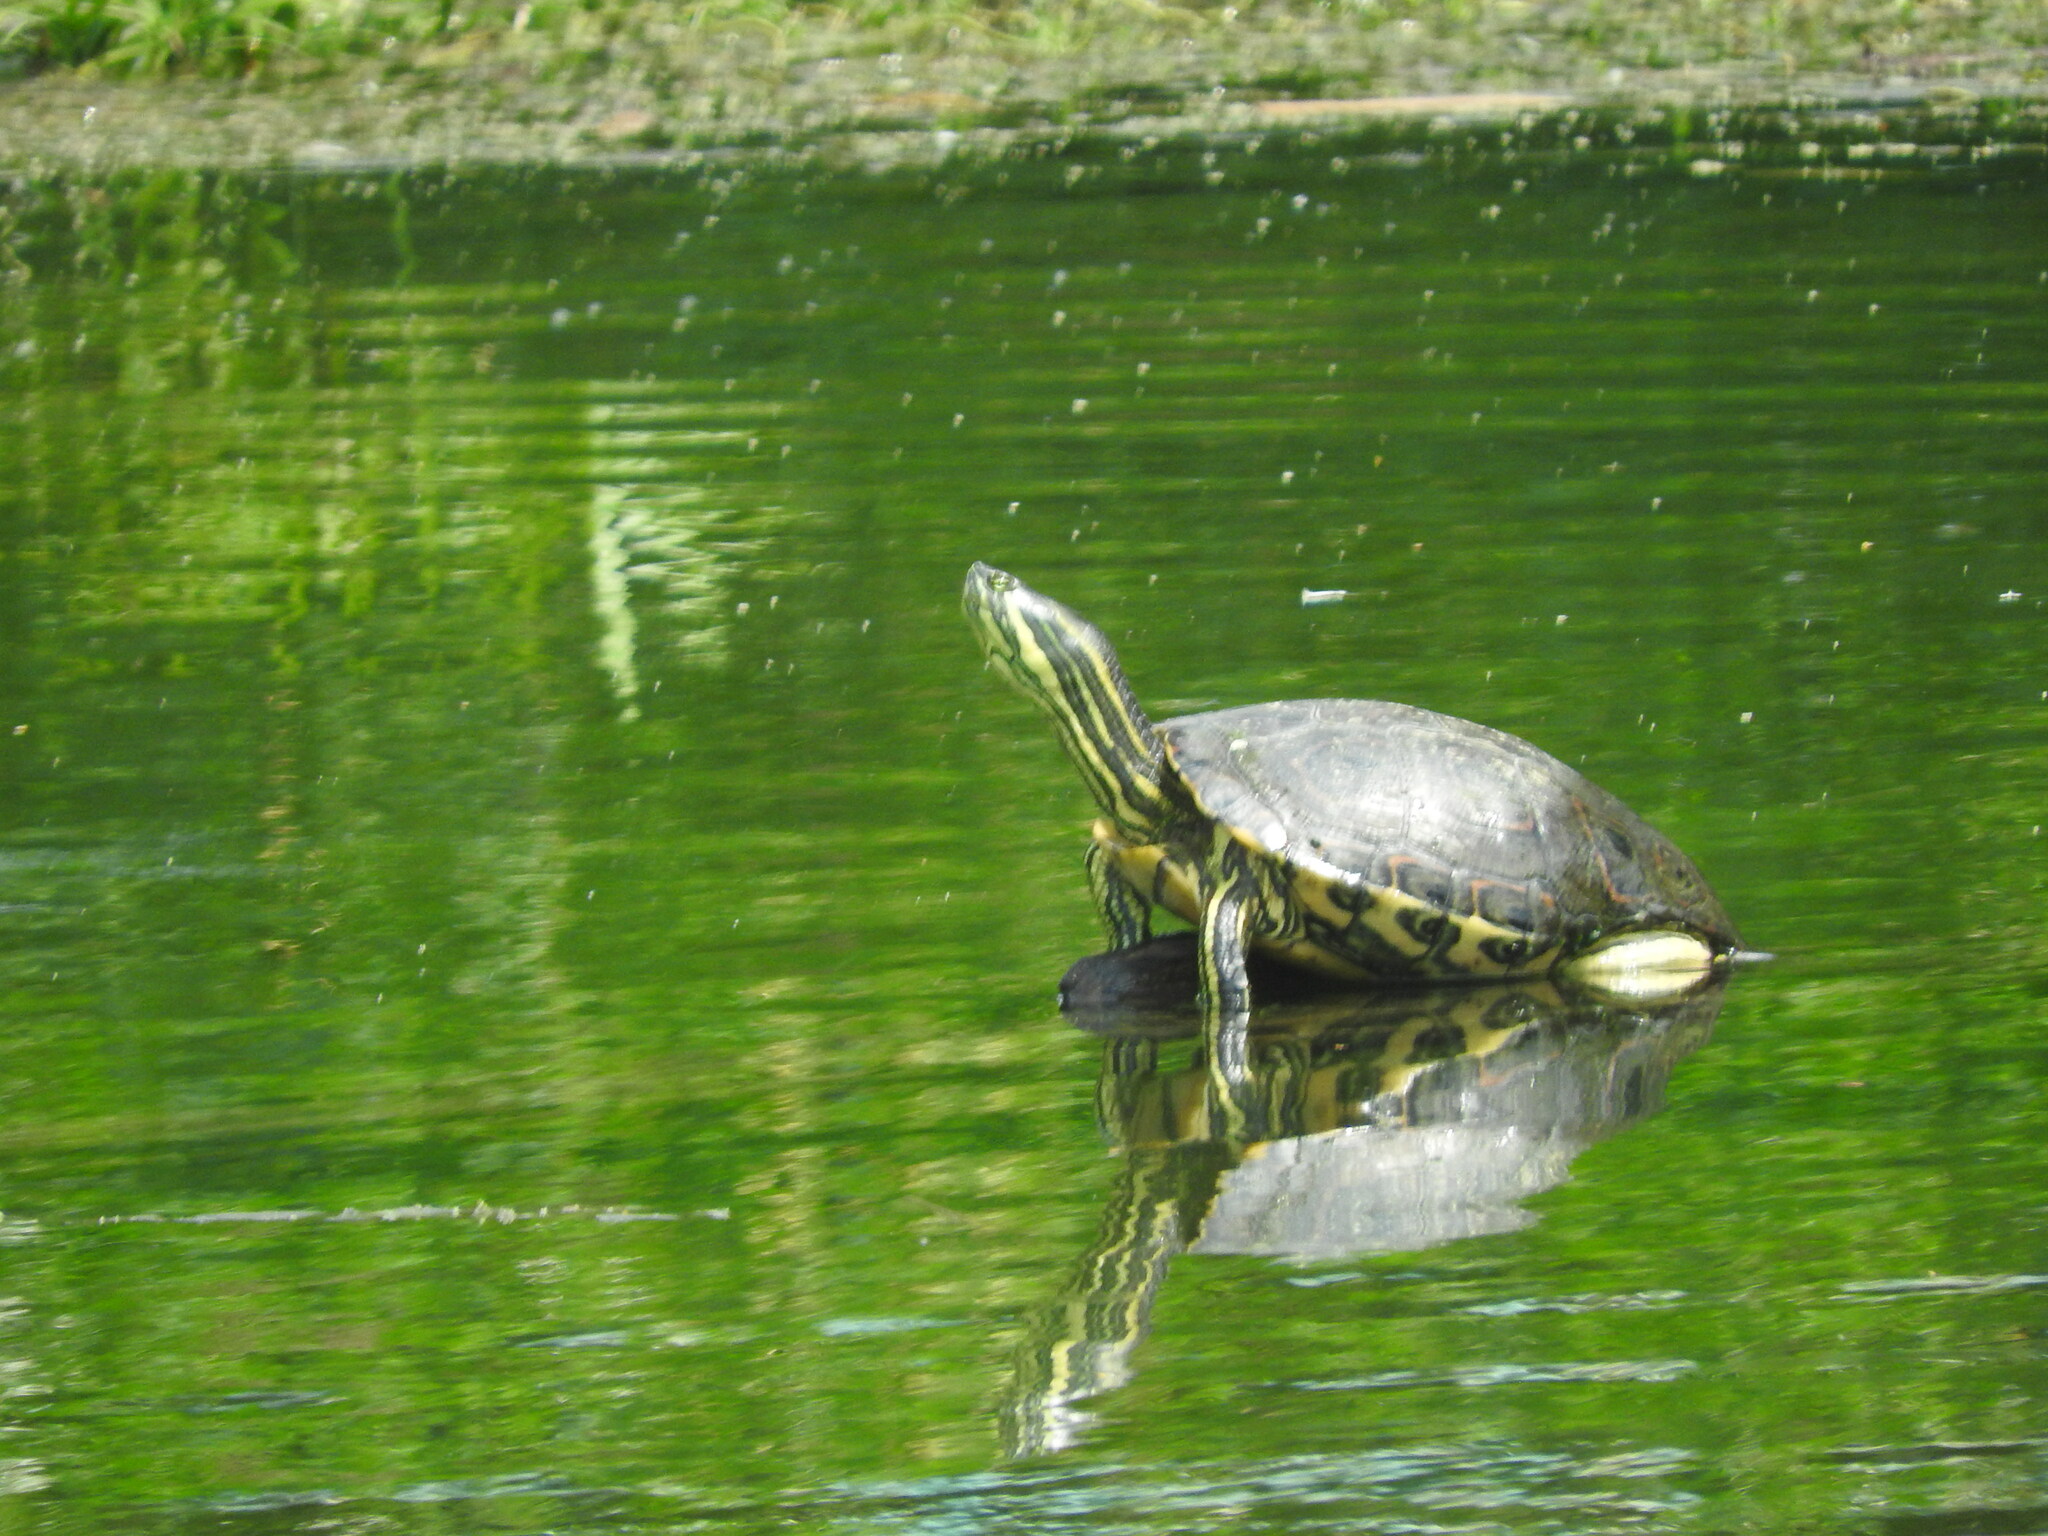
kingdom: Animalia
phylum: Chordata
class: Testudines
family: Emydidae
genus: Trachemys
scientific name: Trachemys venusta
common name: Mesoamerican slider
